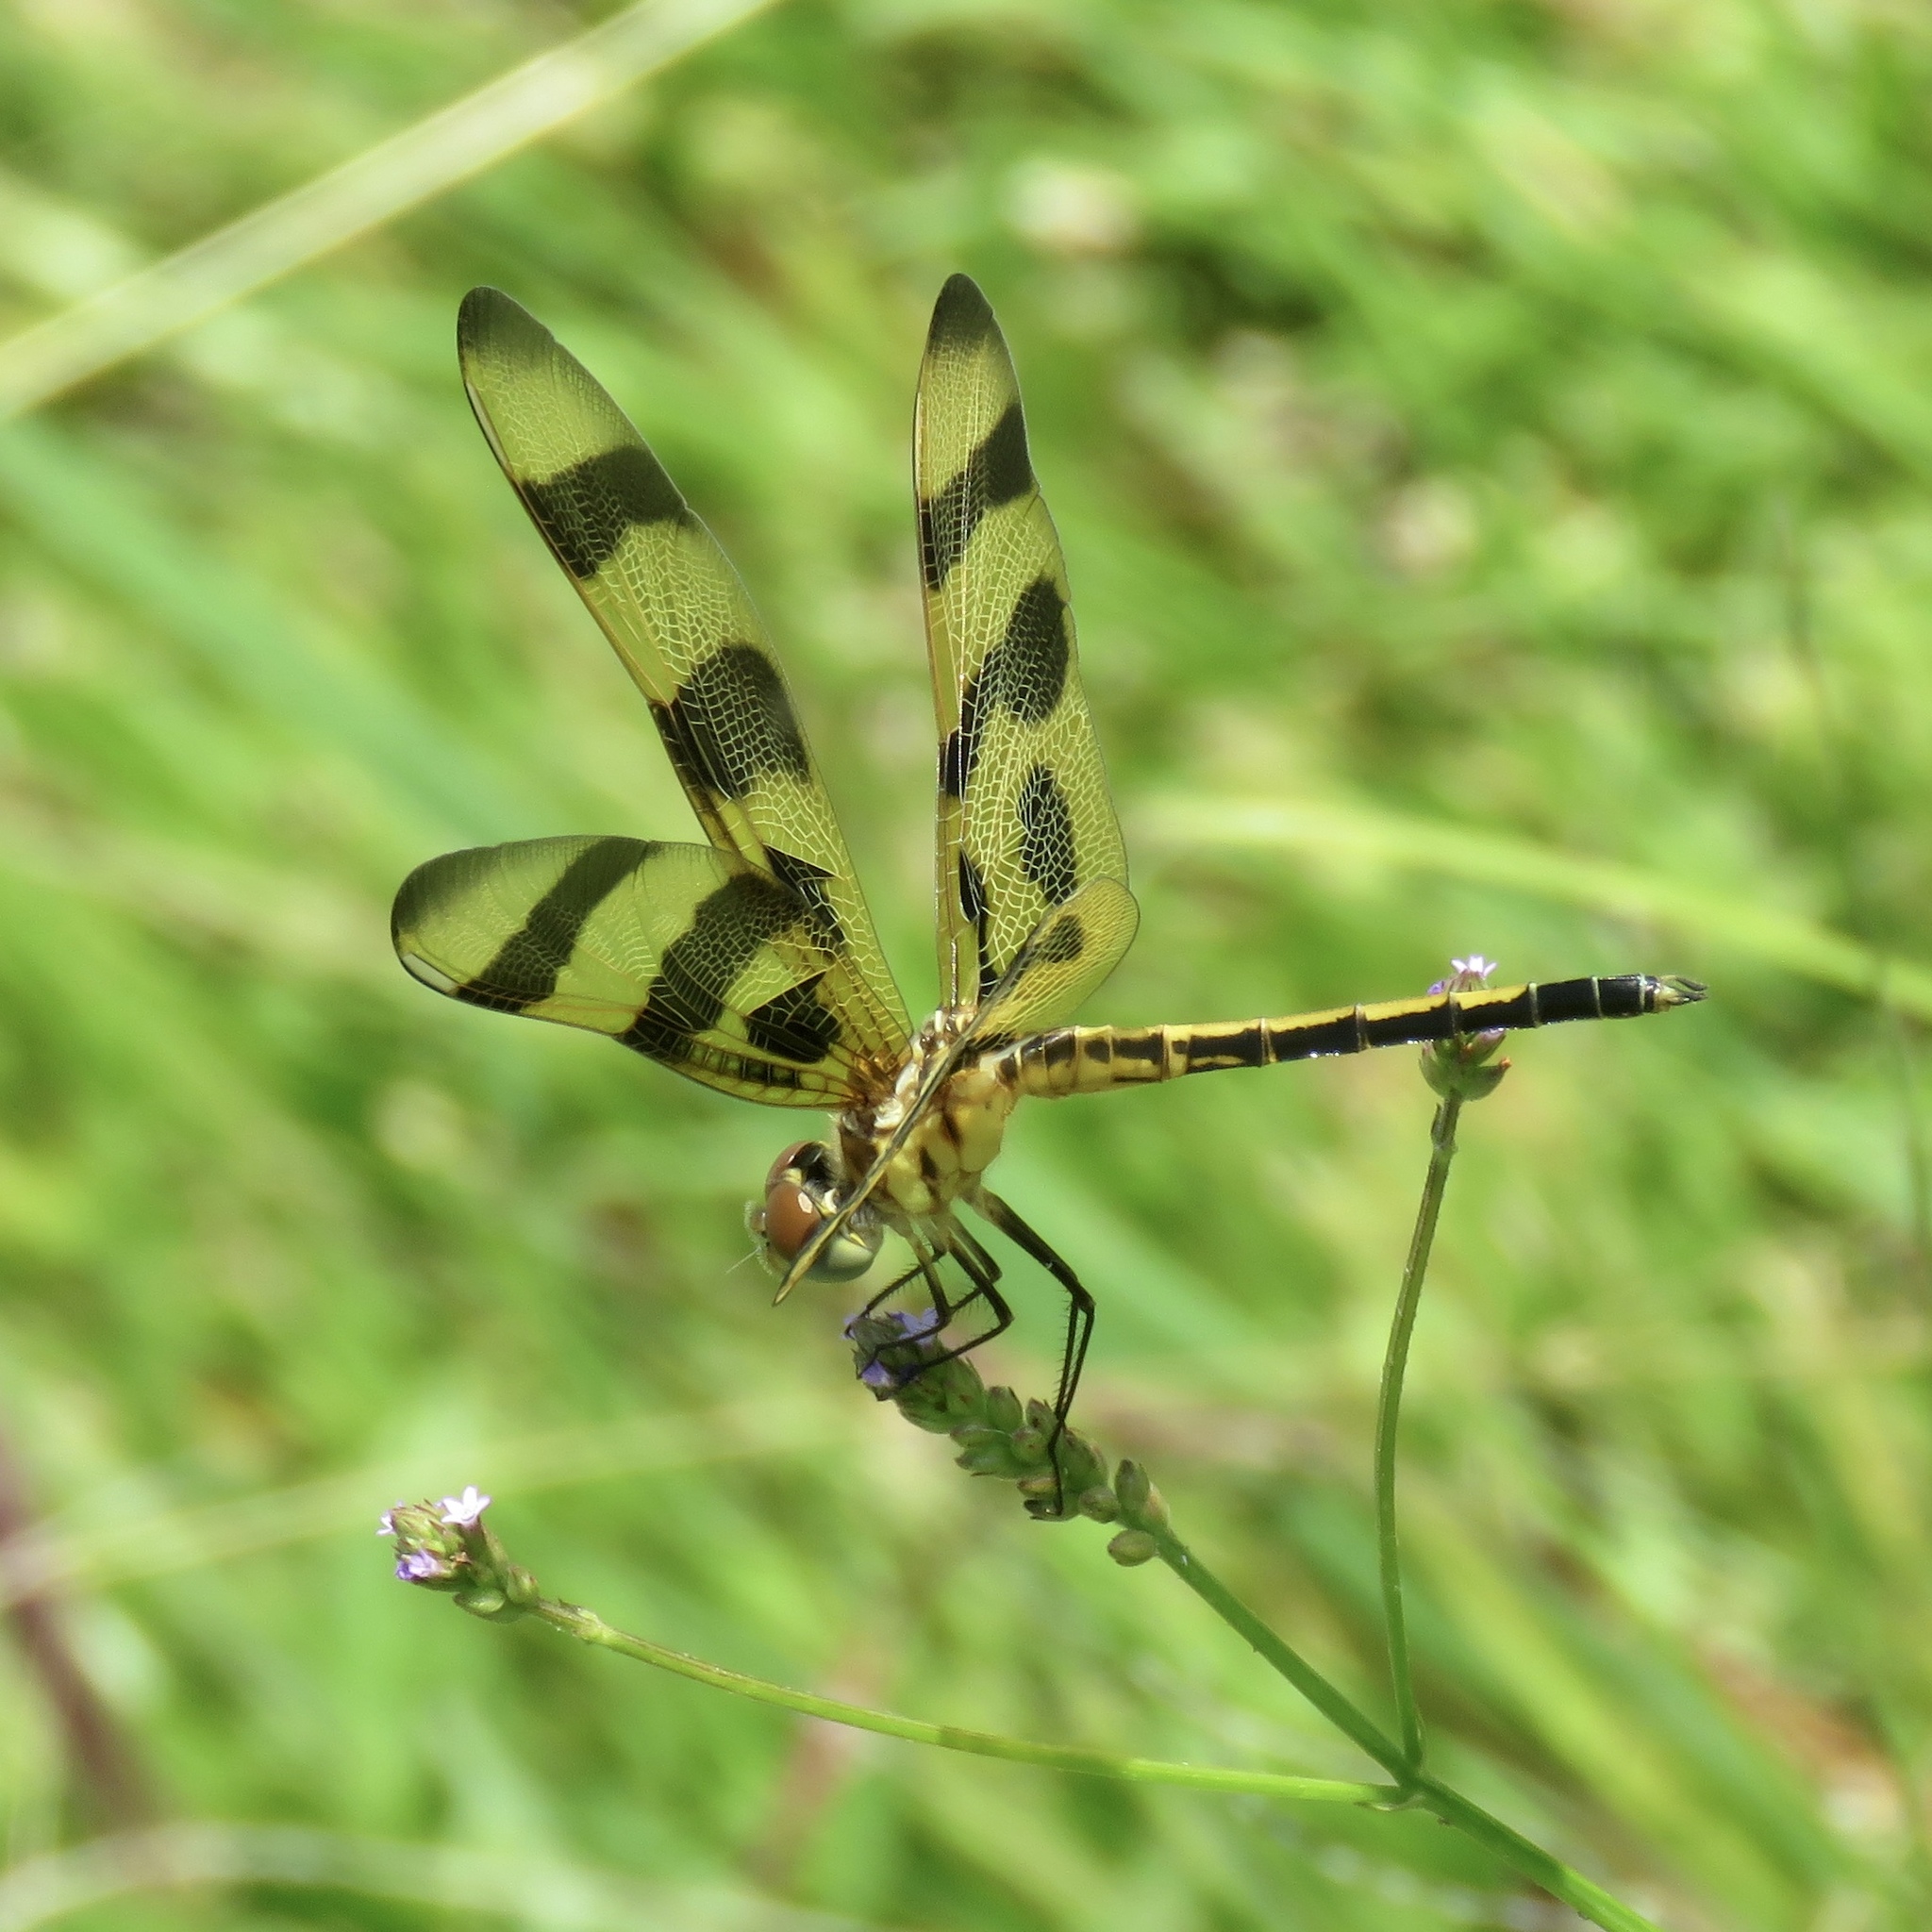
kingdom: Animalia
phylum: Arthropoda
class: Insecta
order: Odonata
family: Libellulidae
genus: Celithemis
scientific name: Celithemis eponina
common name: Halloween pennant
